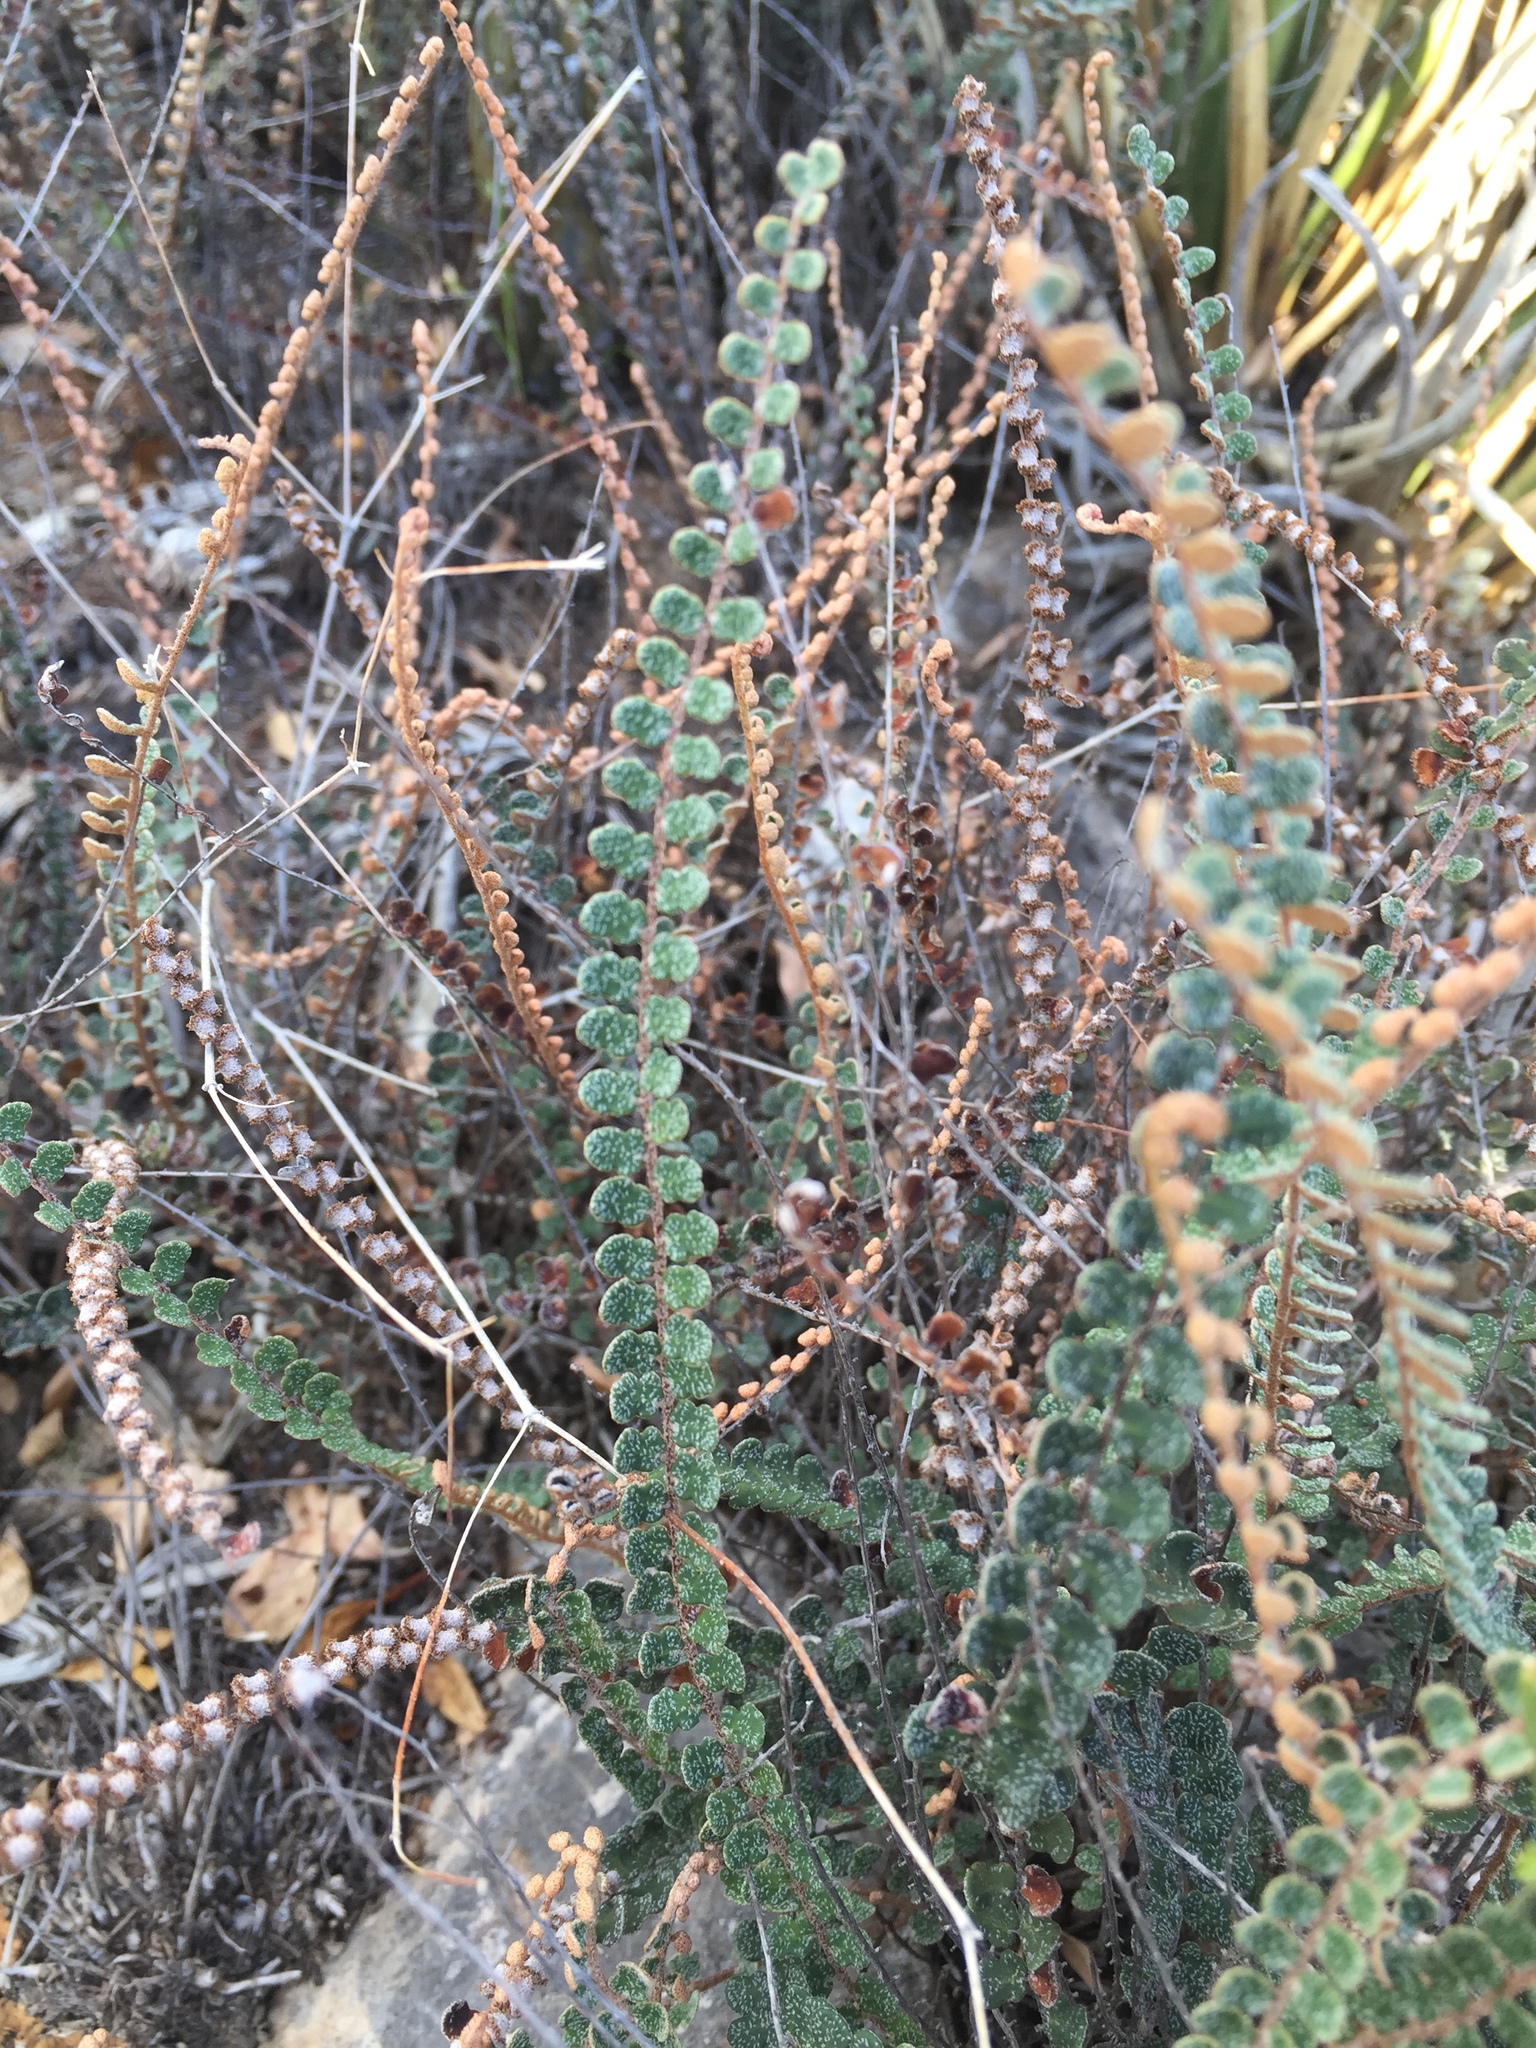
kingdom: Plantae
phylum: Tracheophyta
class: Polypodiopsida
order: Polypodiales
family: Pteridaceae
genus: Astrolepis
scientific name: Astrolepis cochisensis
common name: Scaly cloak fern
